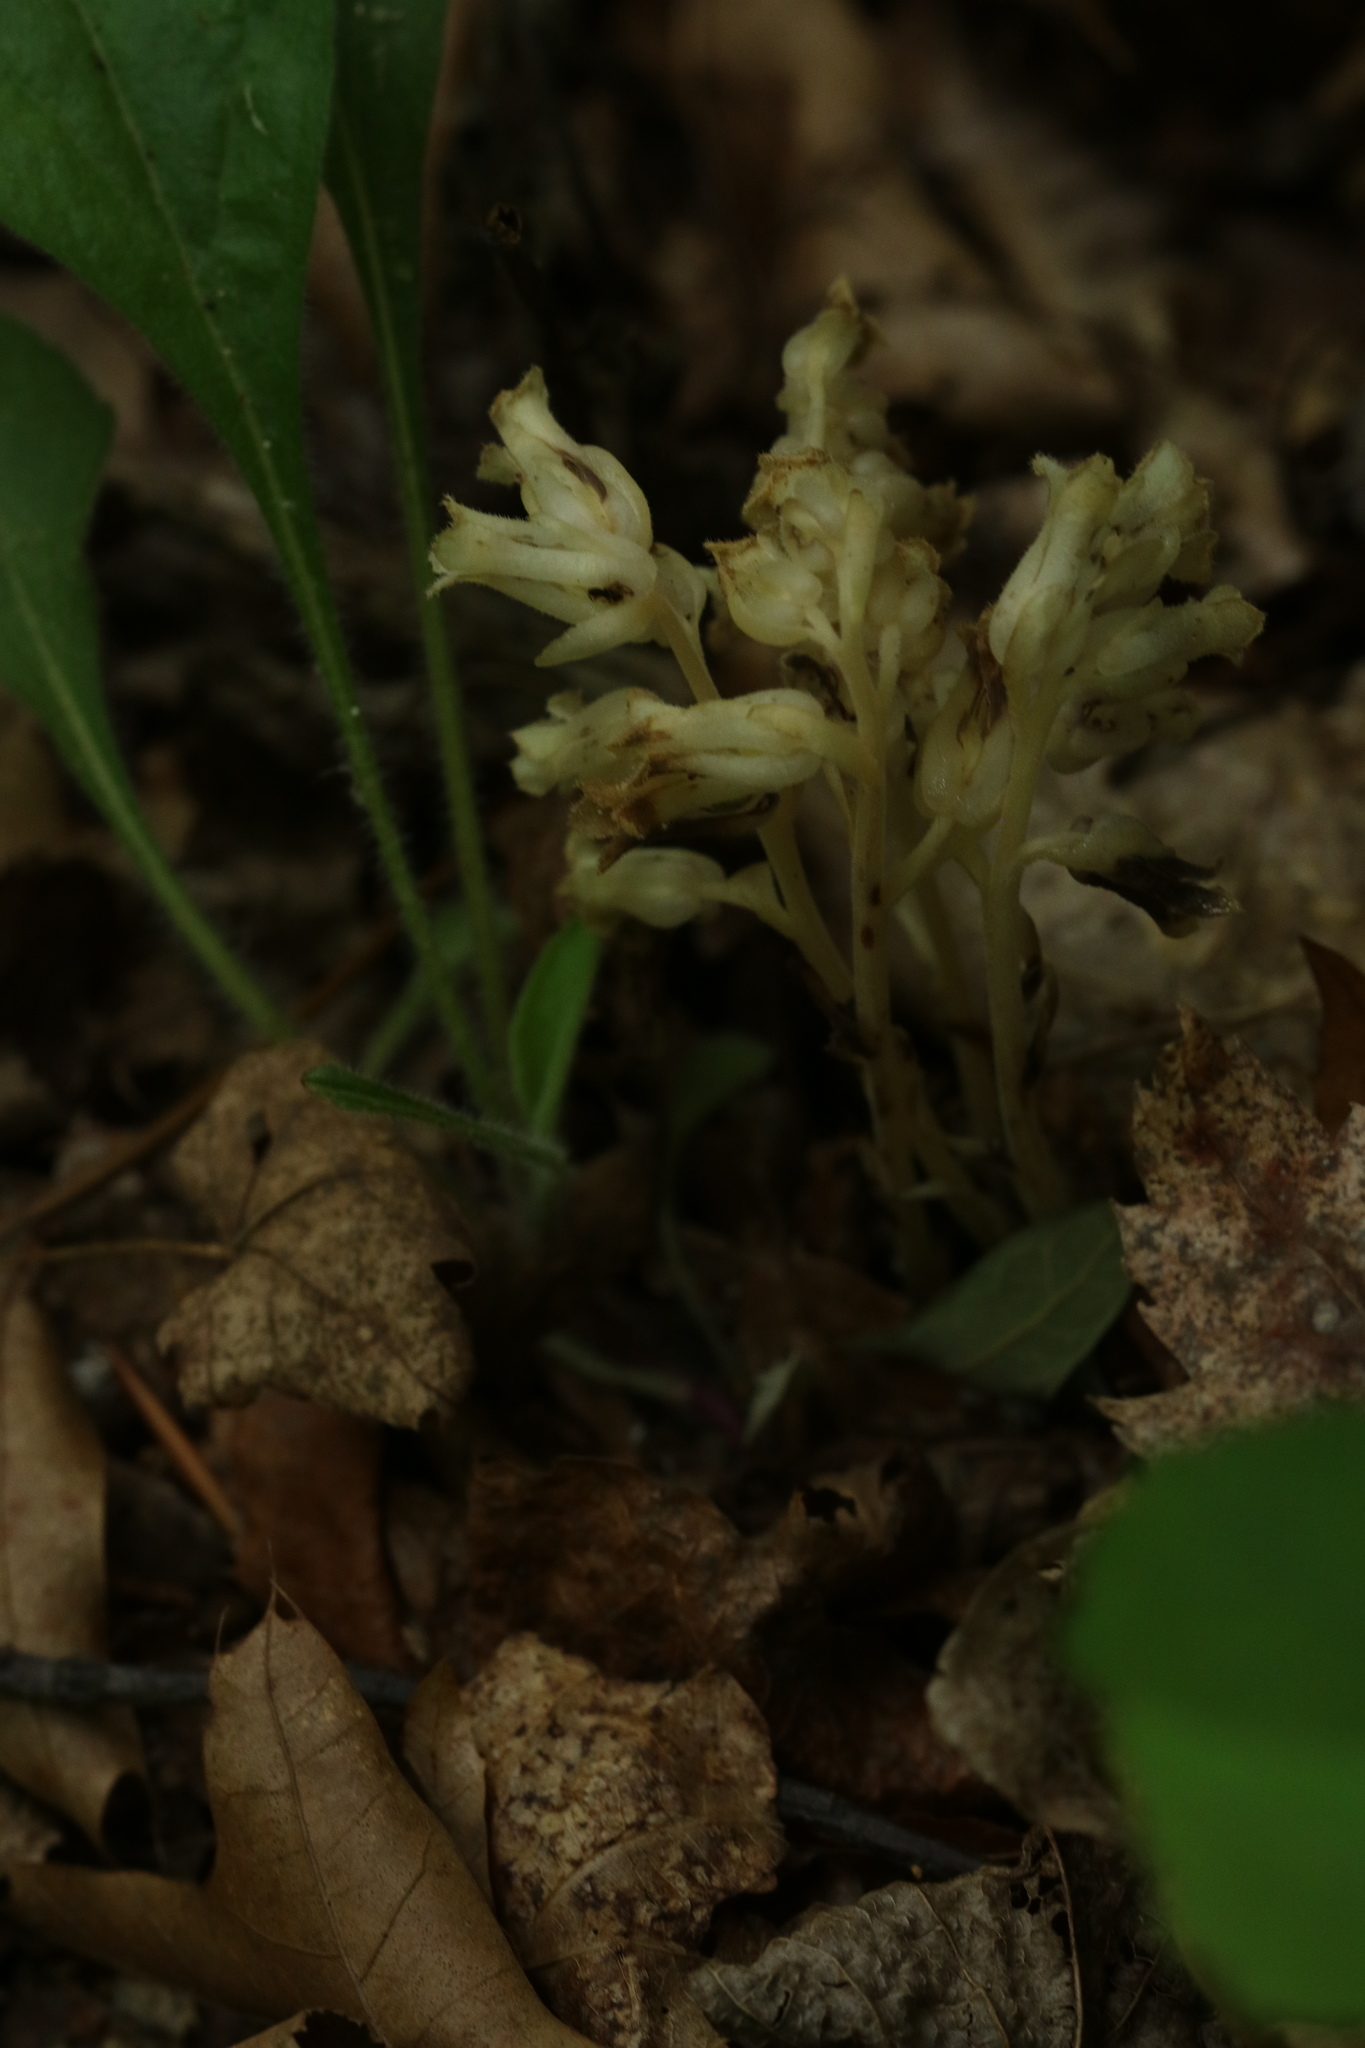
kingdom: Plantae
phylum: Tracheophyta
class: Magnoliopsida
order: Ericales
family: Ericaceae
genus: Hypopitys
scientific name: Hypopitys monotropa
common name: Yellow bird's-nest
